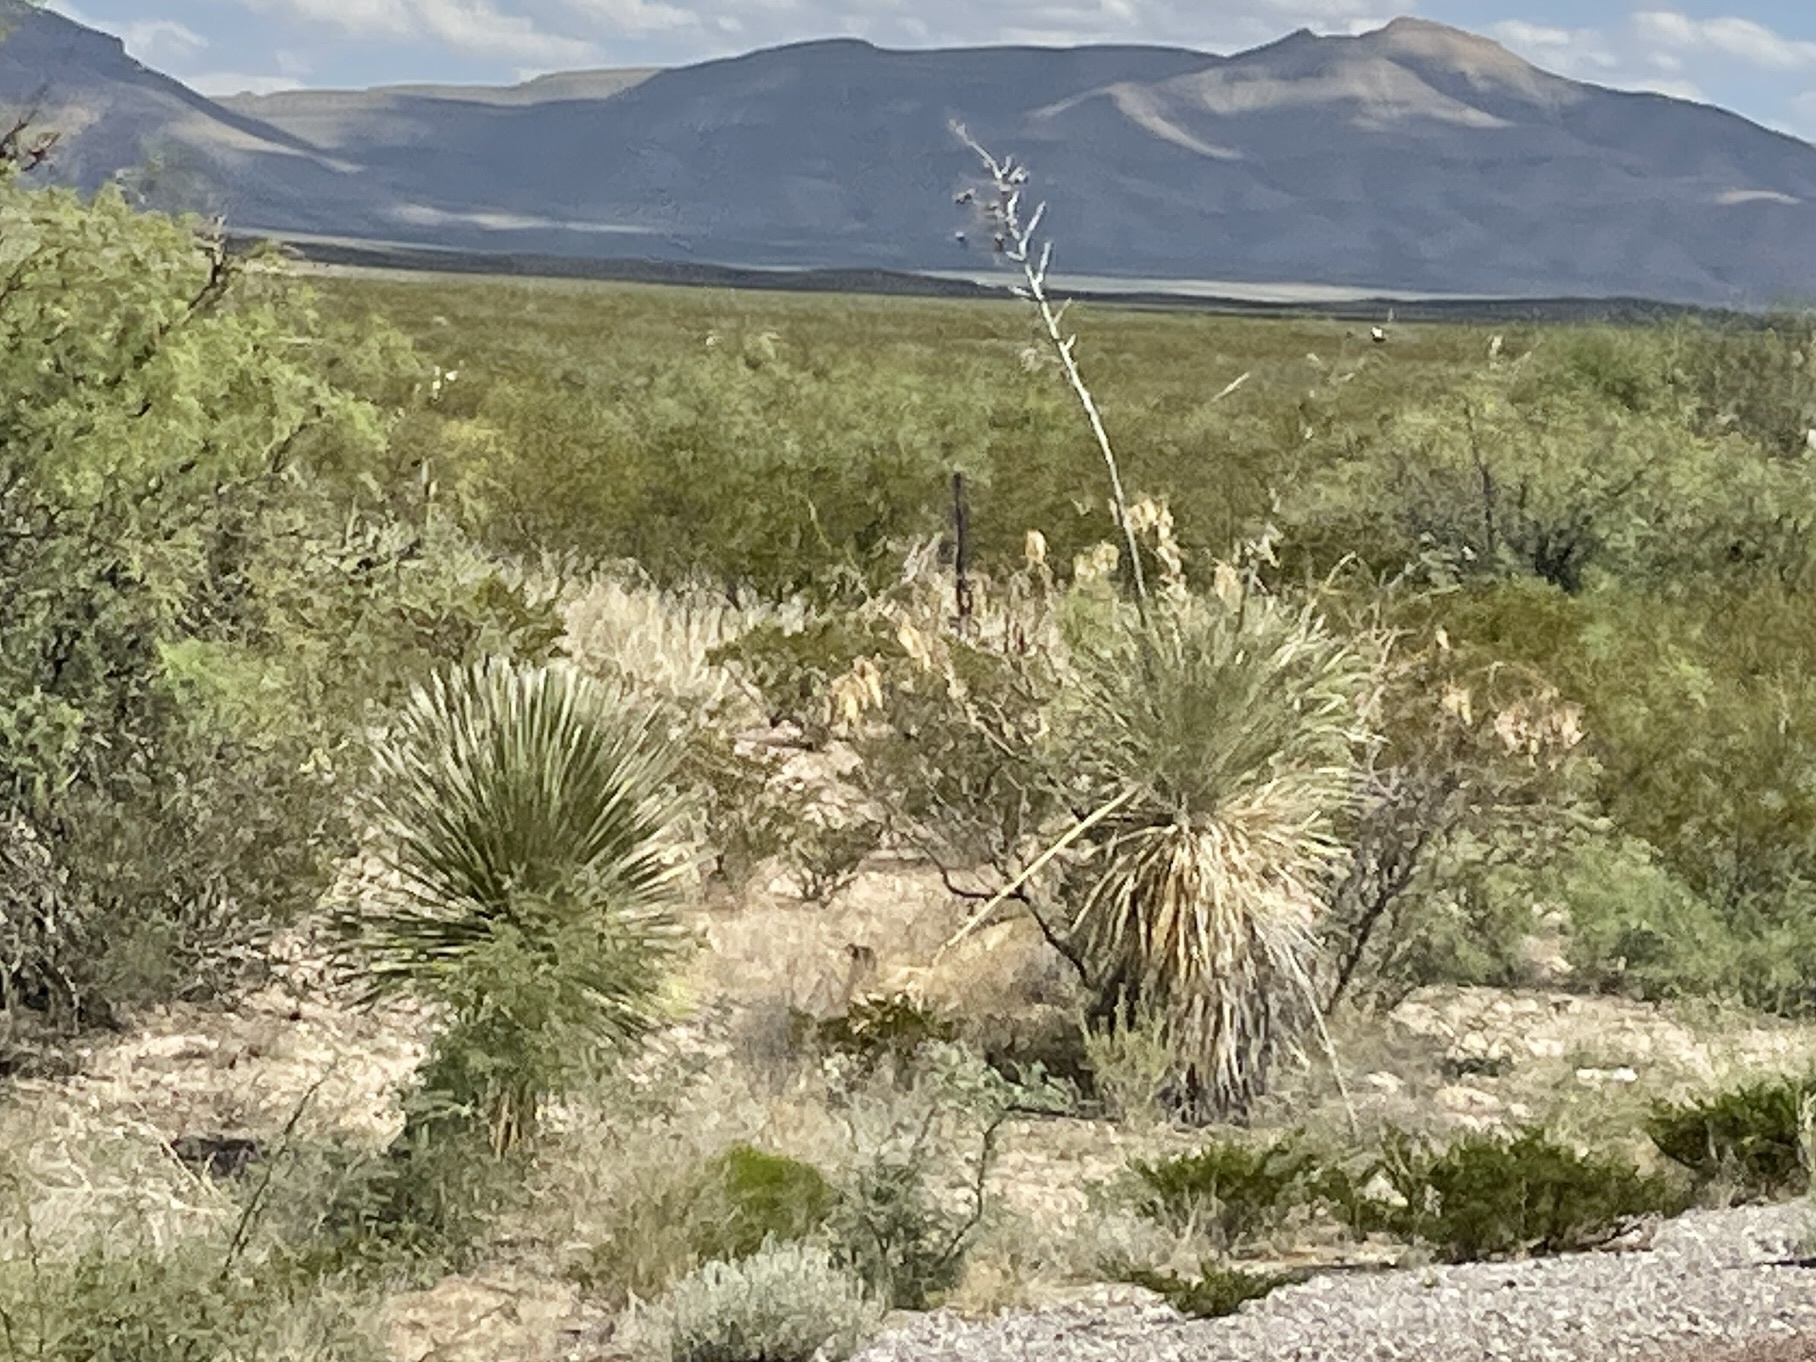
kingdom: Plantae
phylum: Tracheophyta
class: Liliopsida
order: Asparagales
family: Asparagaceae
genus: Yucca
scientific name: Yucca elata
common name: Palmella
